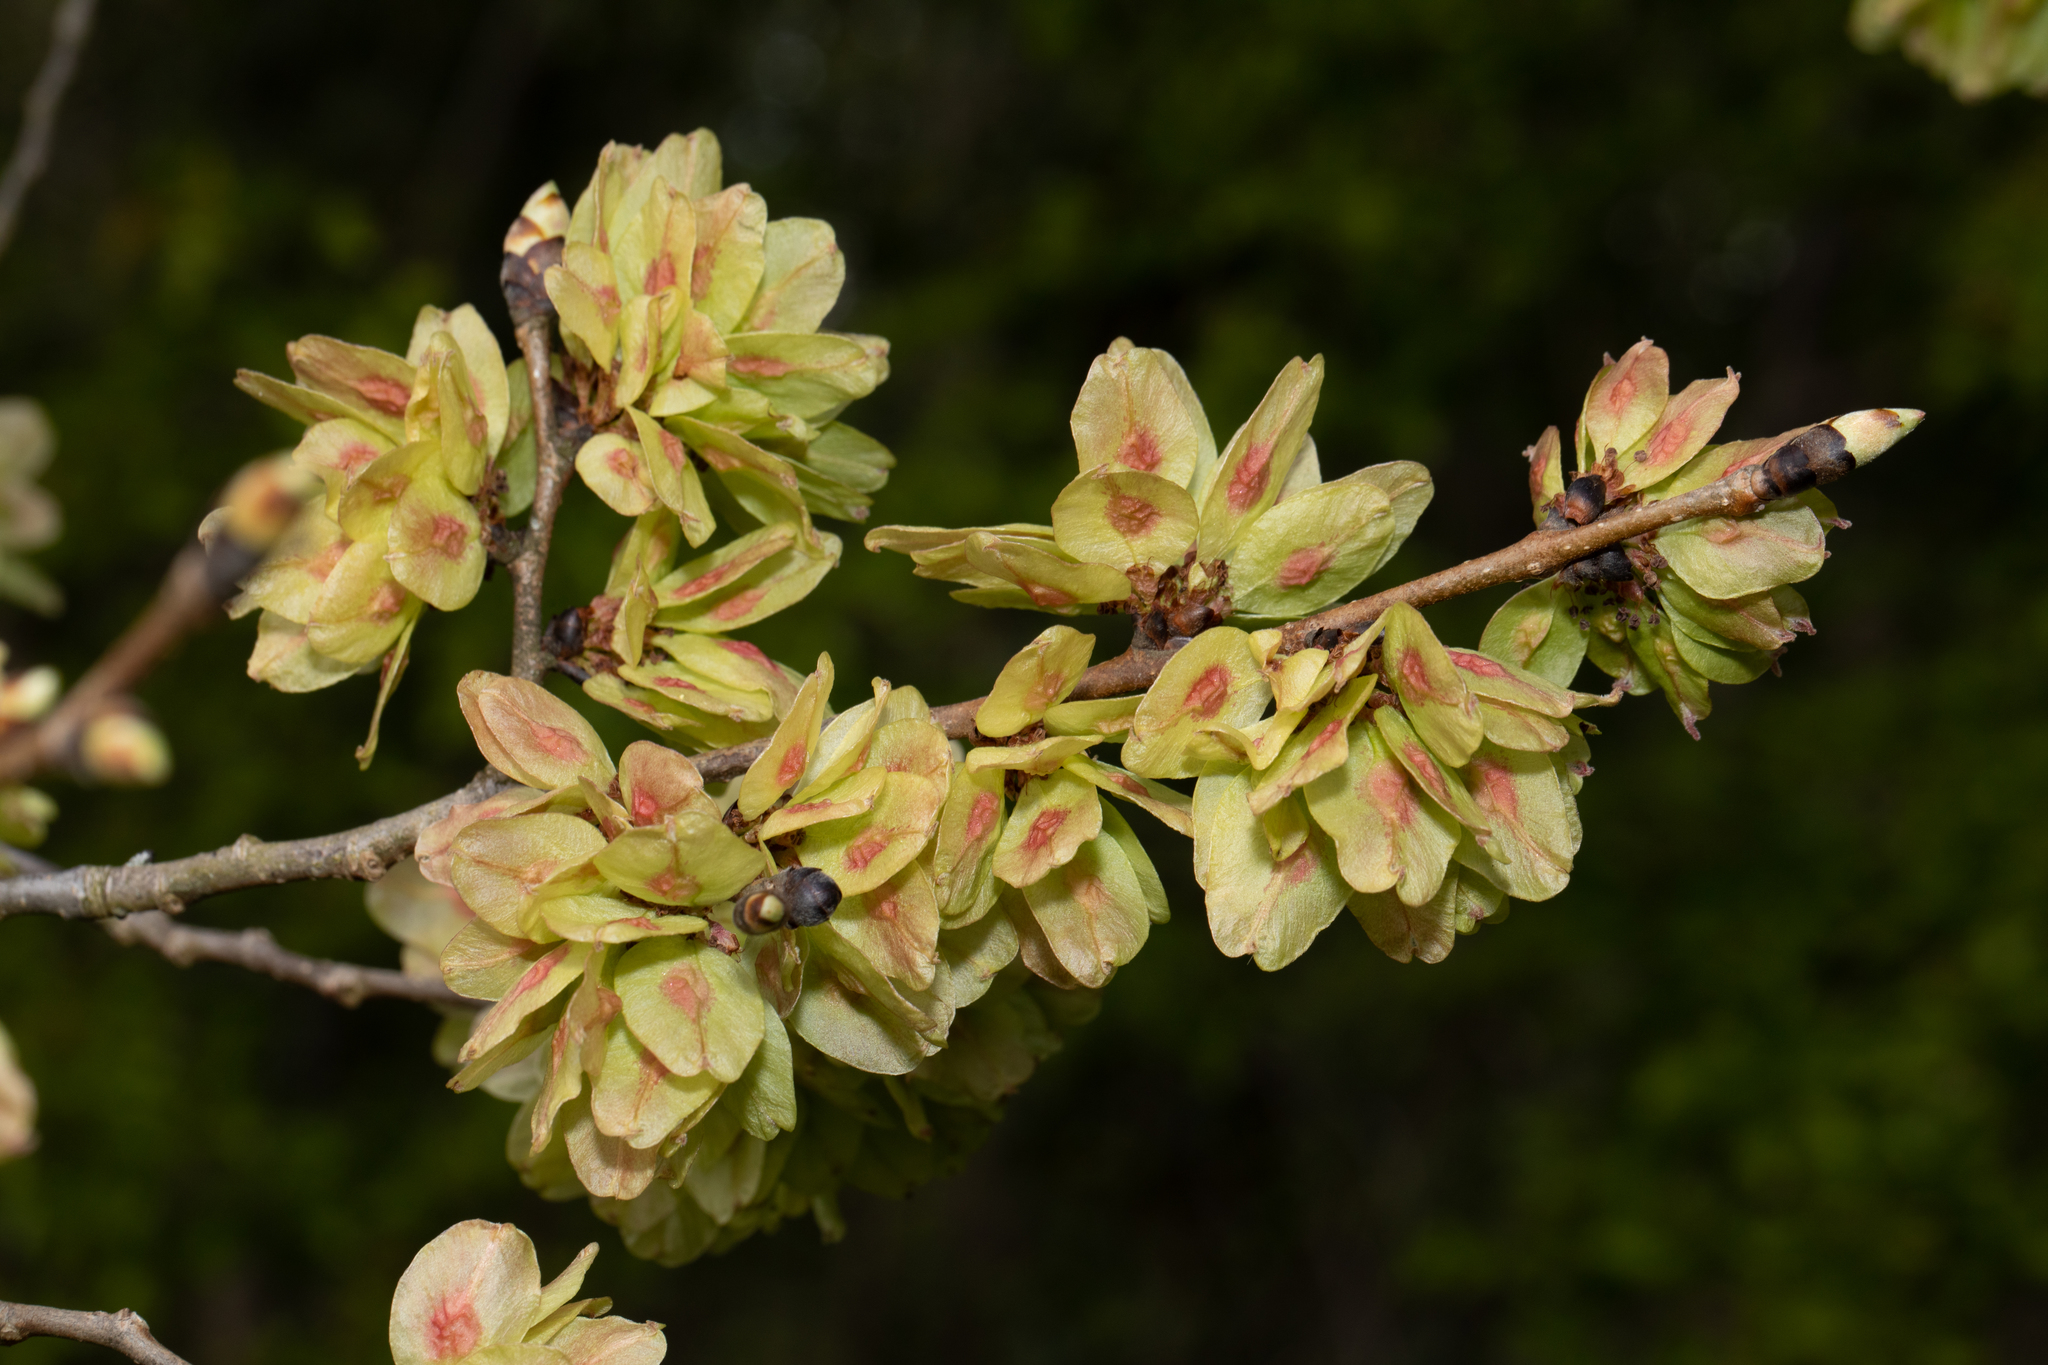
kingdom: Plantae
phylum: Tracheophyta
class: Magnoliopsida
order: Rosales
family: Ulmaceae
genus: Ulmus
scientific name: Ulmus glabra
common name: Wych elm
